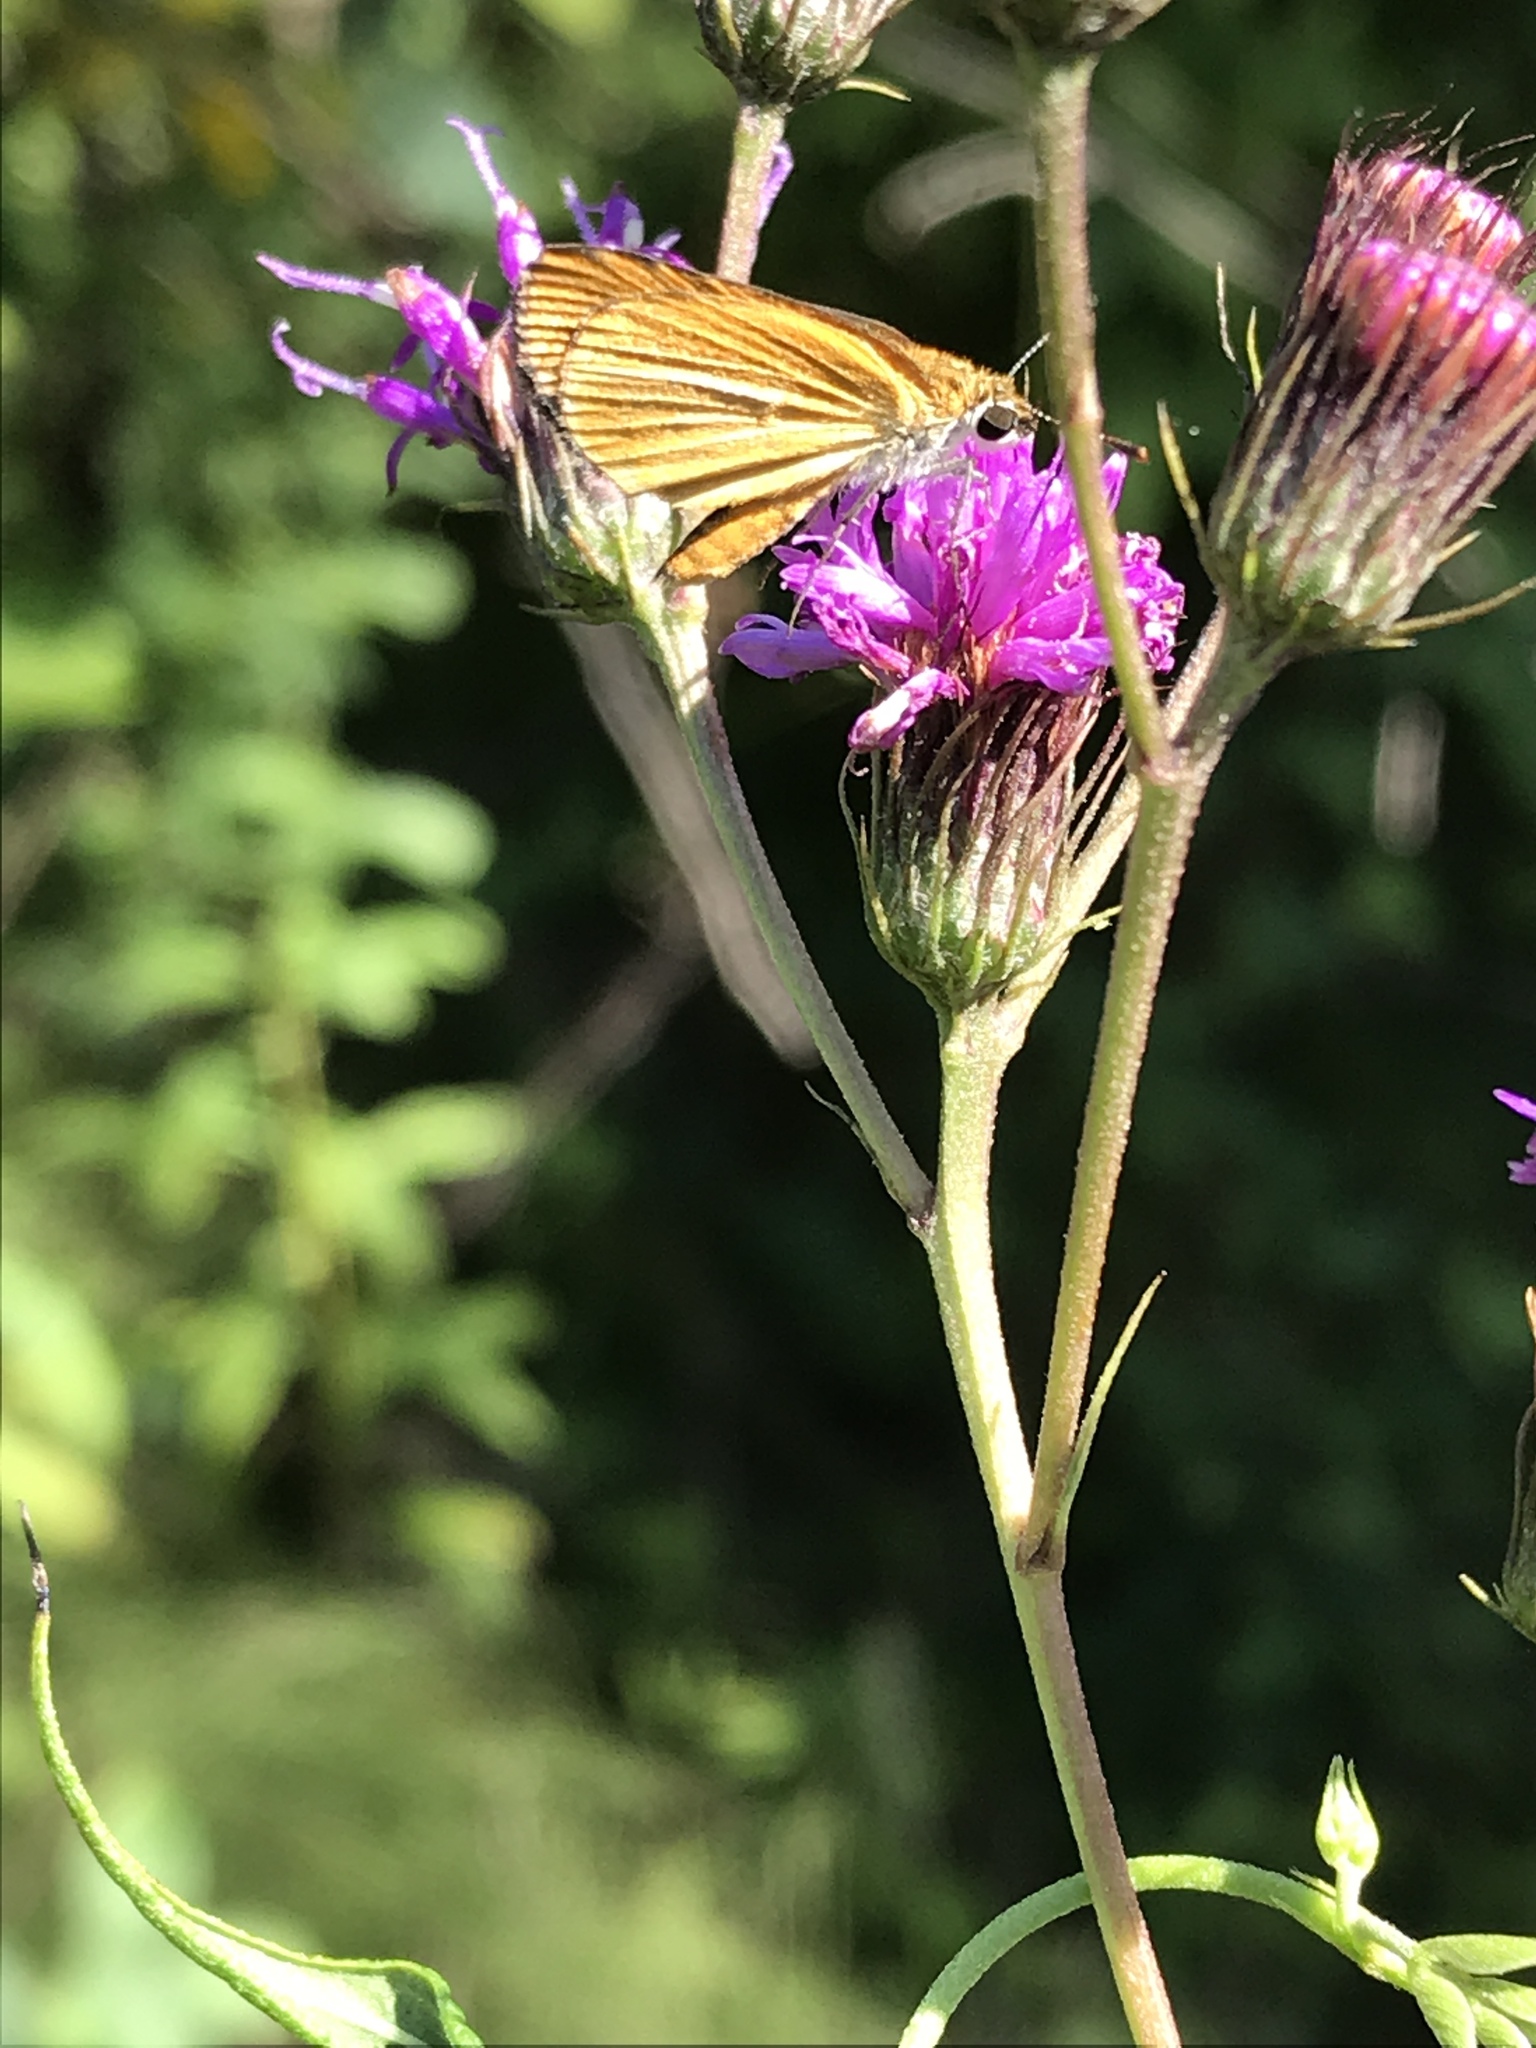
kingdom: Animalia
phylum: Arthropoda
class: Insecta
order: Lepidoptera
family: Hesperiidae
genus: Ancyloxypha
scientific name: Ancyloxypha numitor
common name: Least skipper
